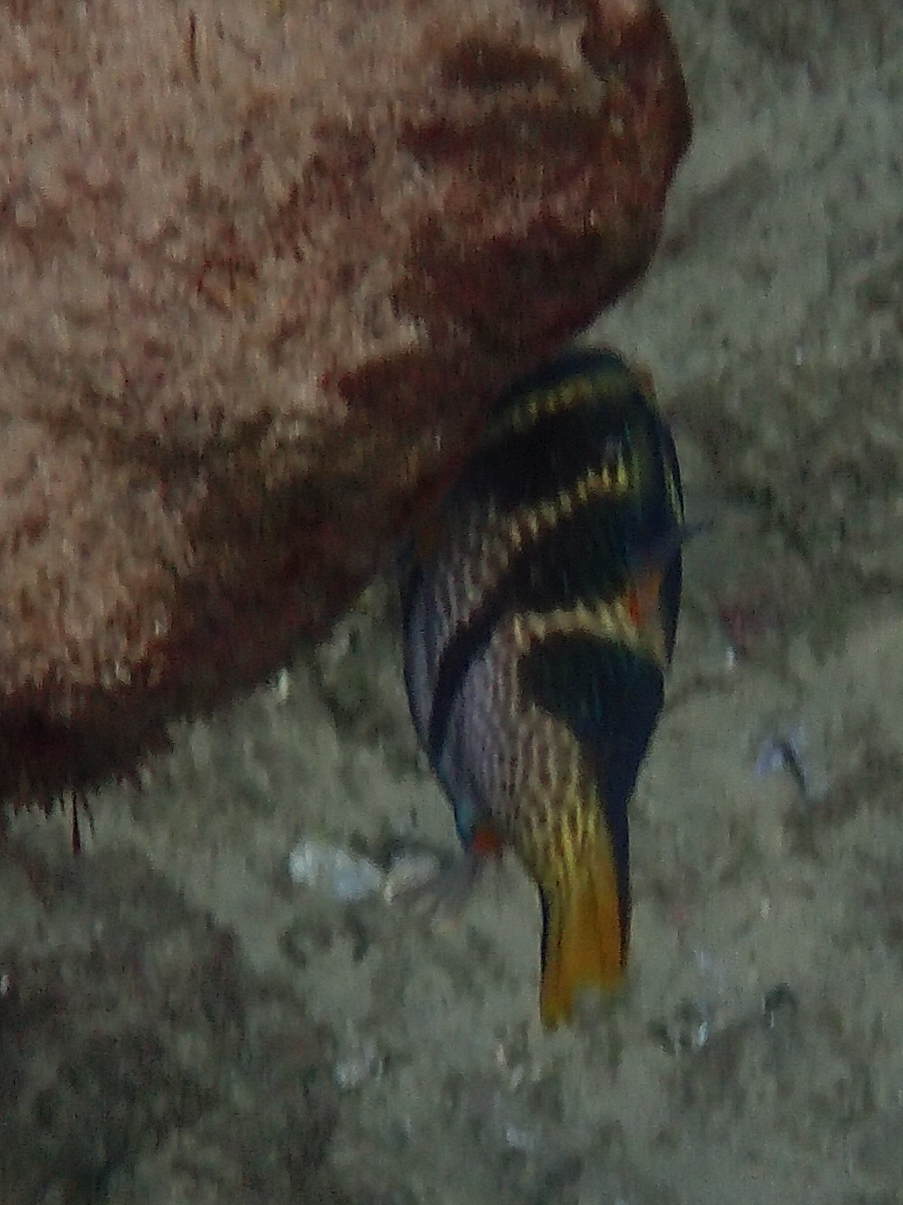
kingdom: Animalia
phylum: Chordata
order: Tetraodontiformes
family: Tetraodontidae
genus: Canthigaster
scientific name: Canthigaster valentini
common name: Banded toby
